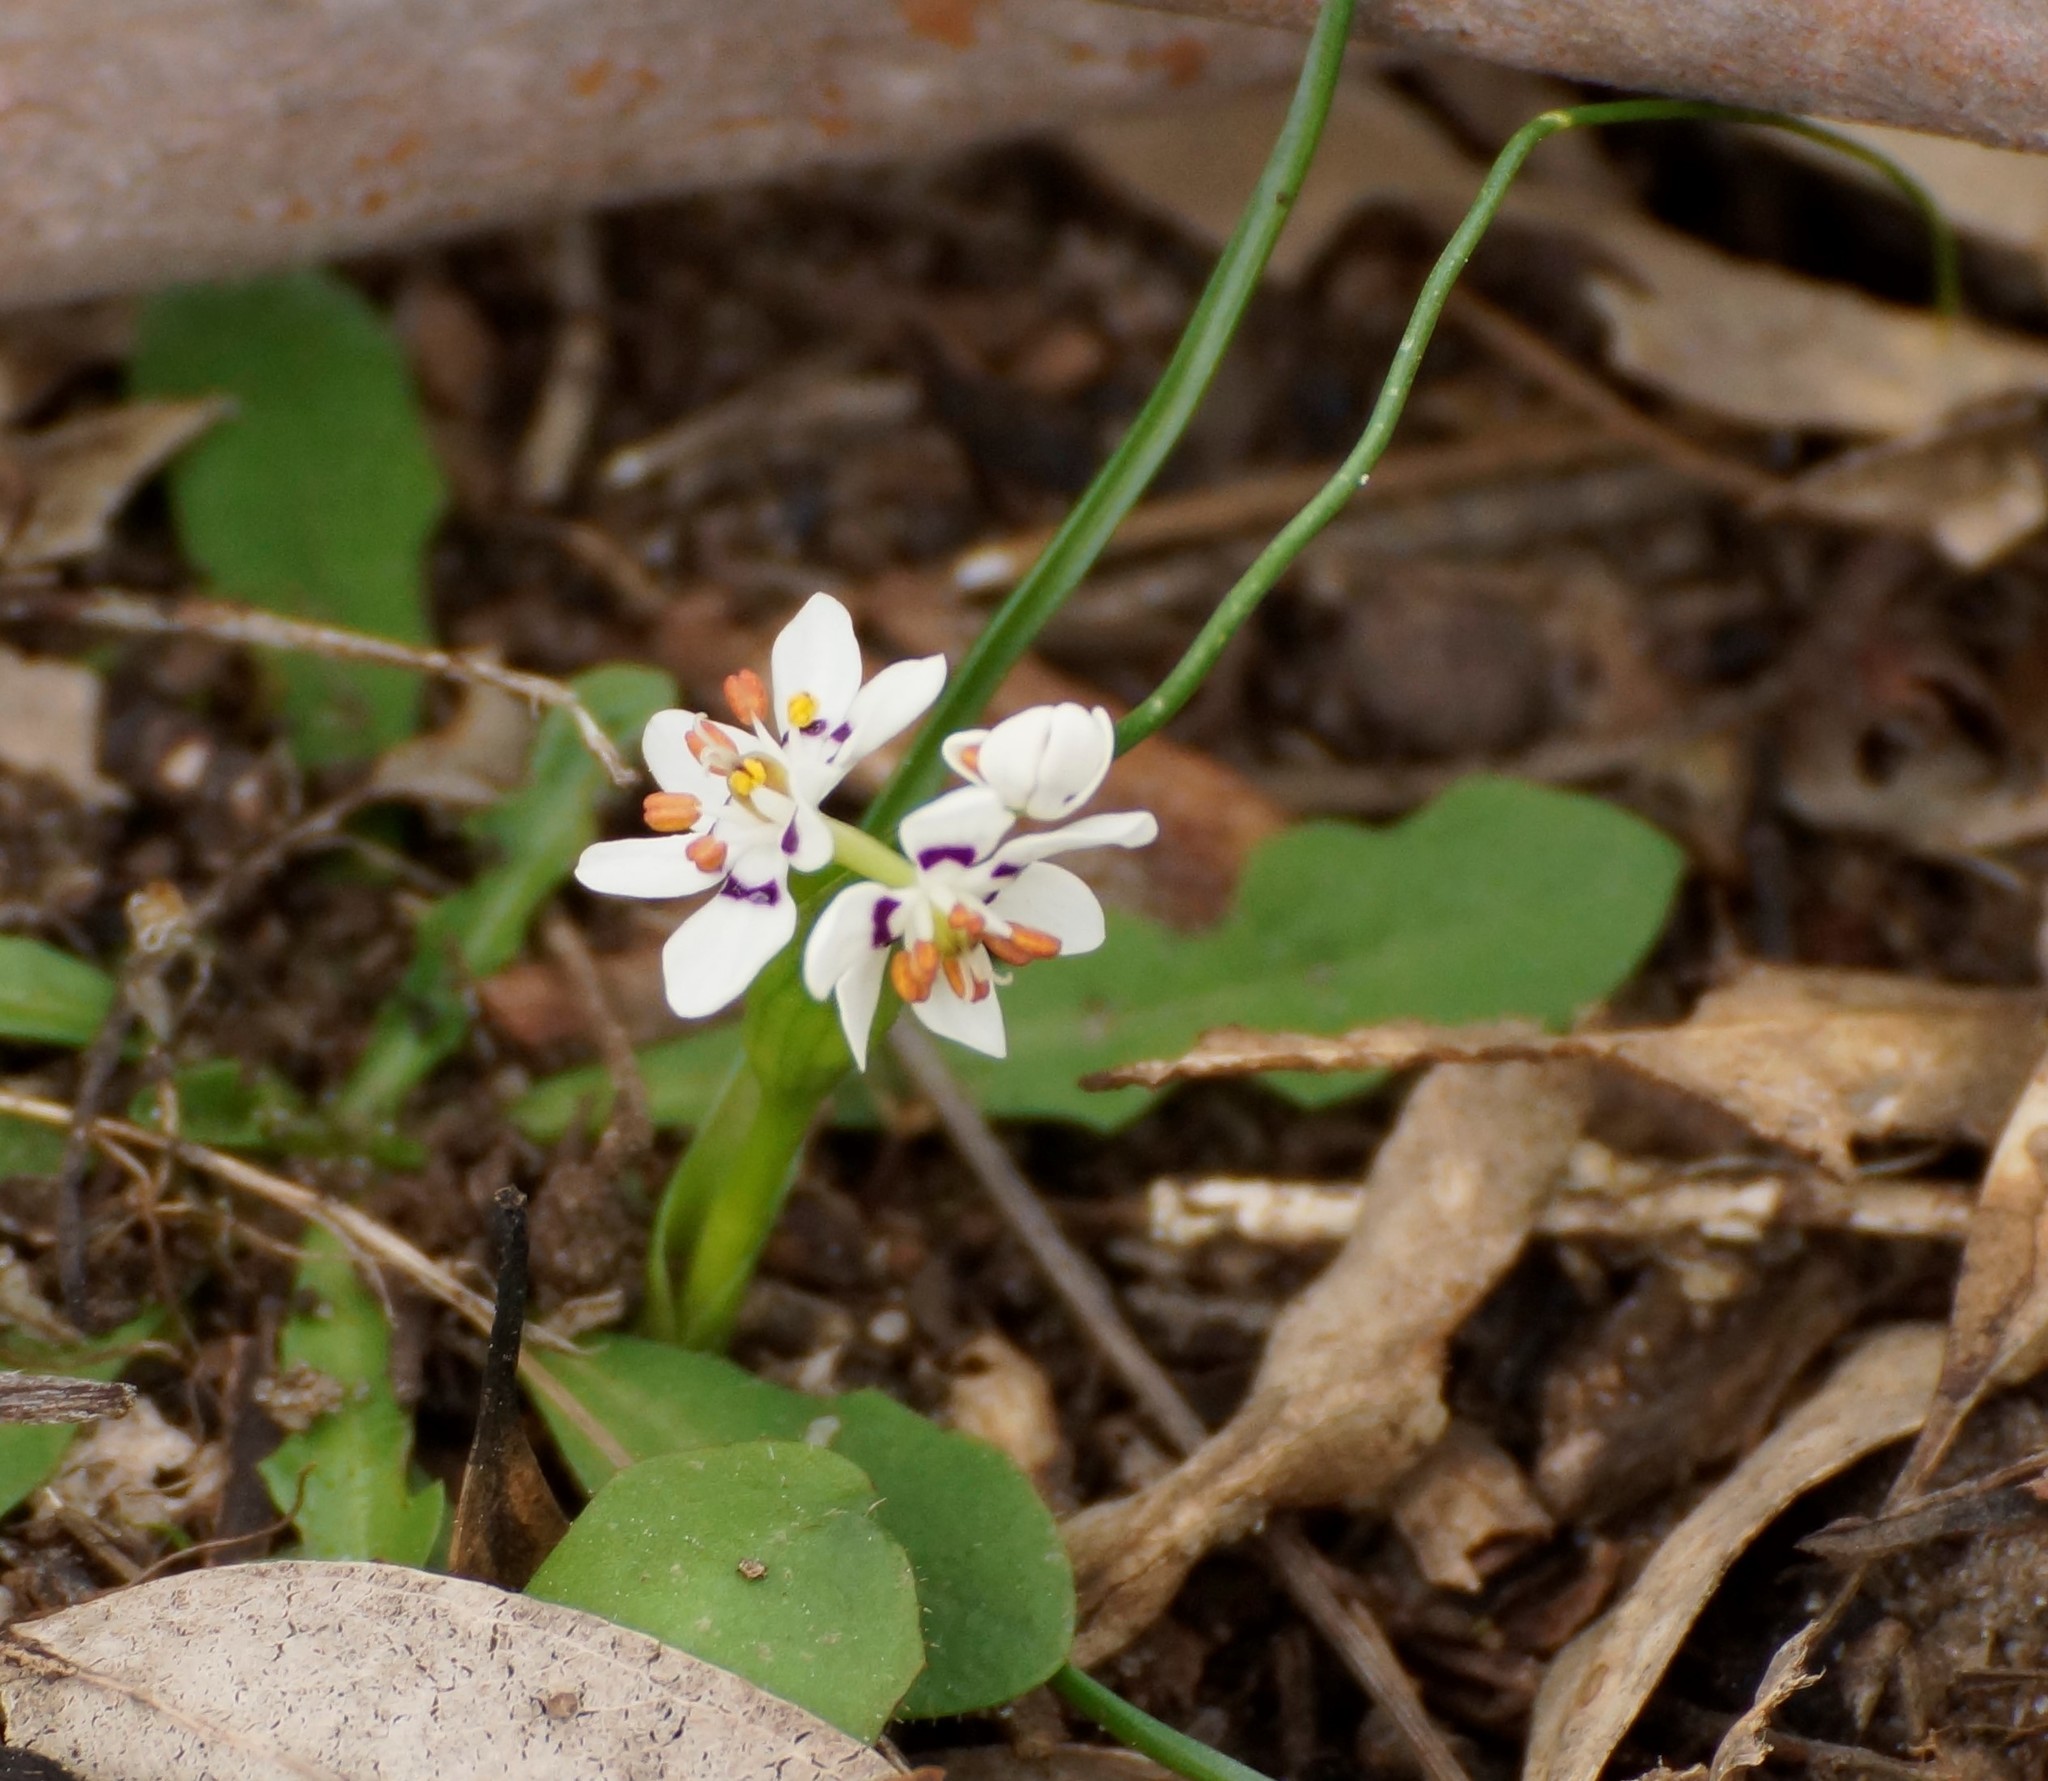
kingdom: Plantae
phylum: Tracheophyta
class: Liliopsida
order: Liliales
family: Colchicaceae
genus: Wurmbea
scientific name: Wurmbea dioica
